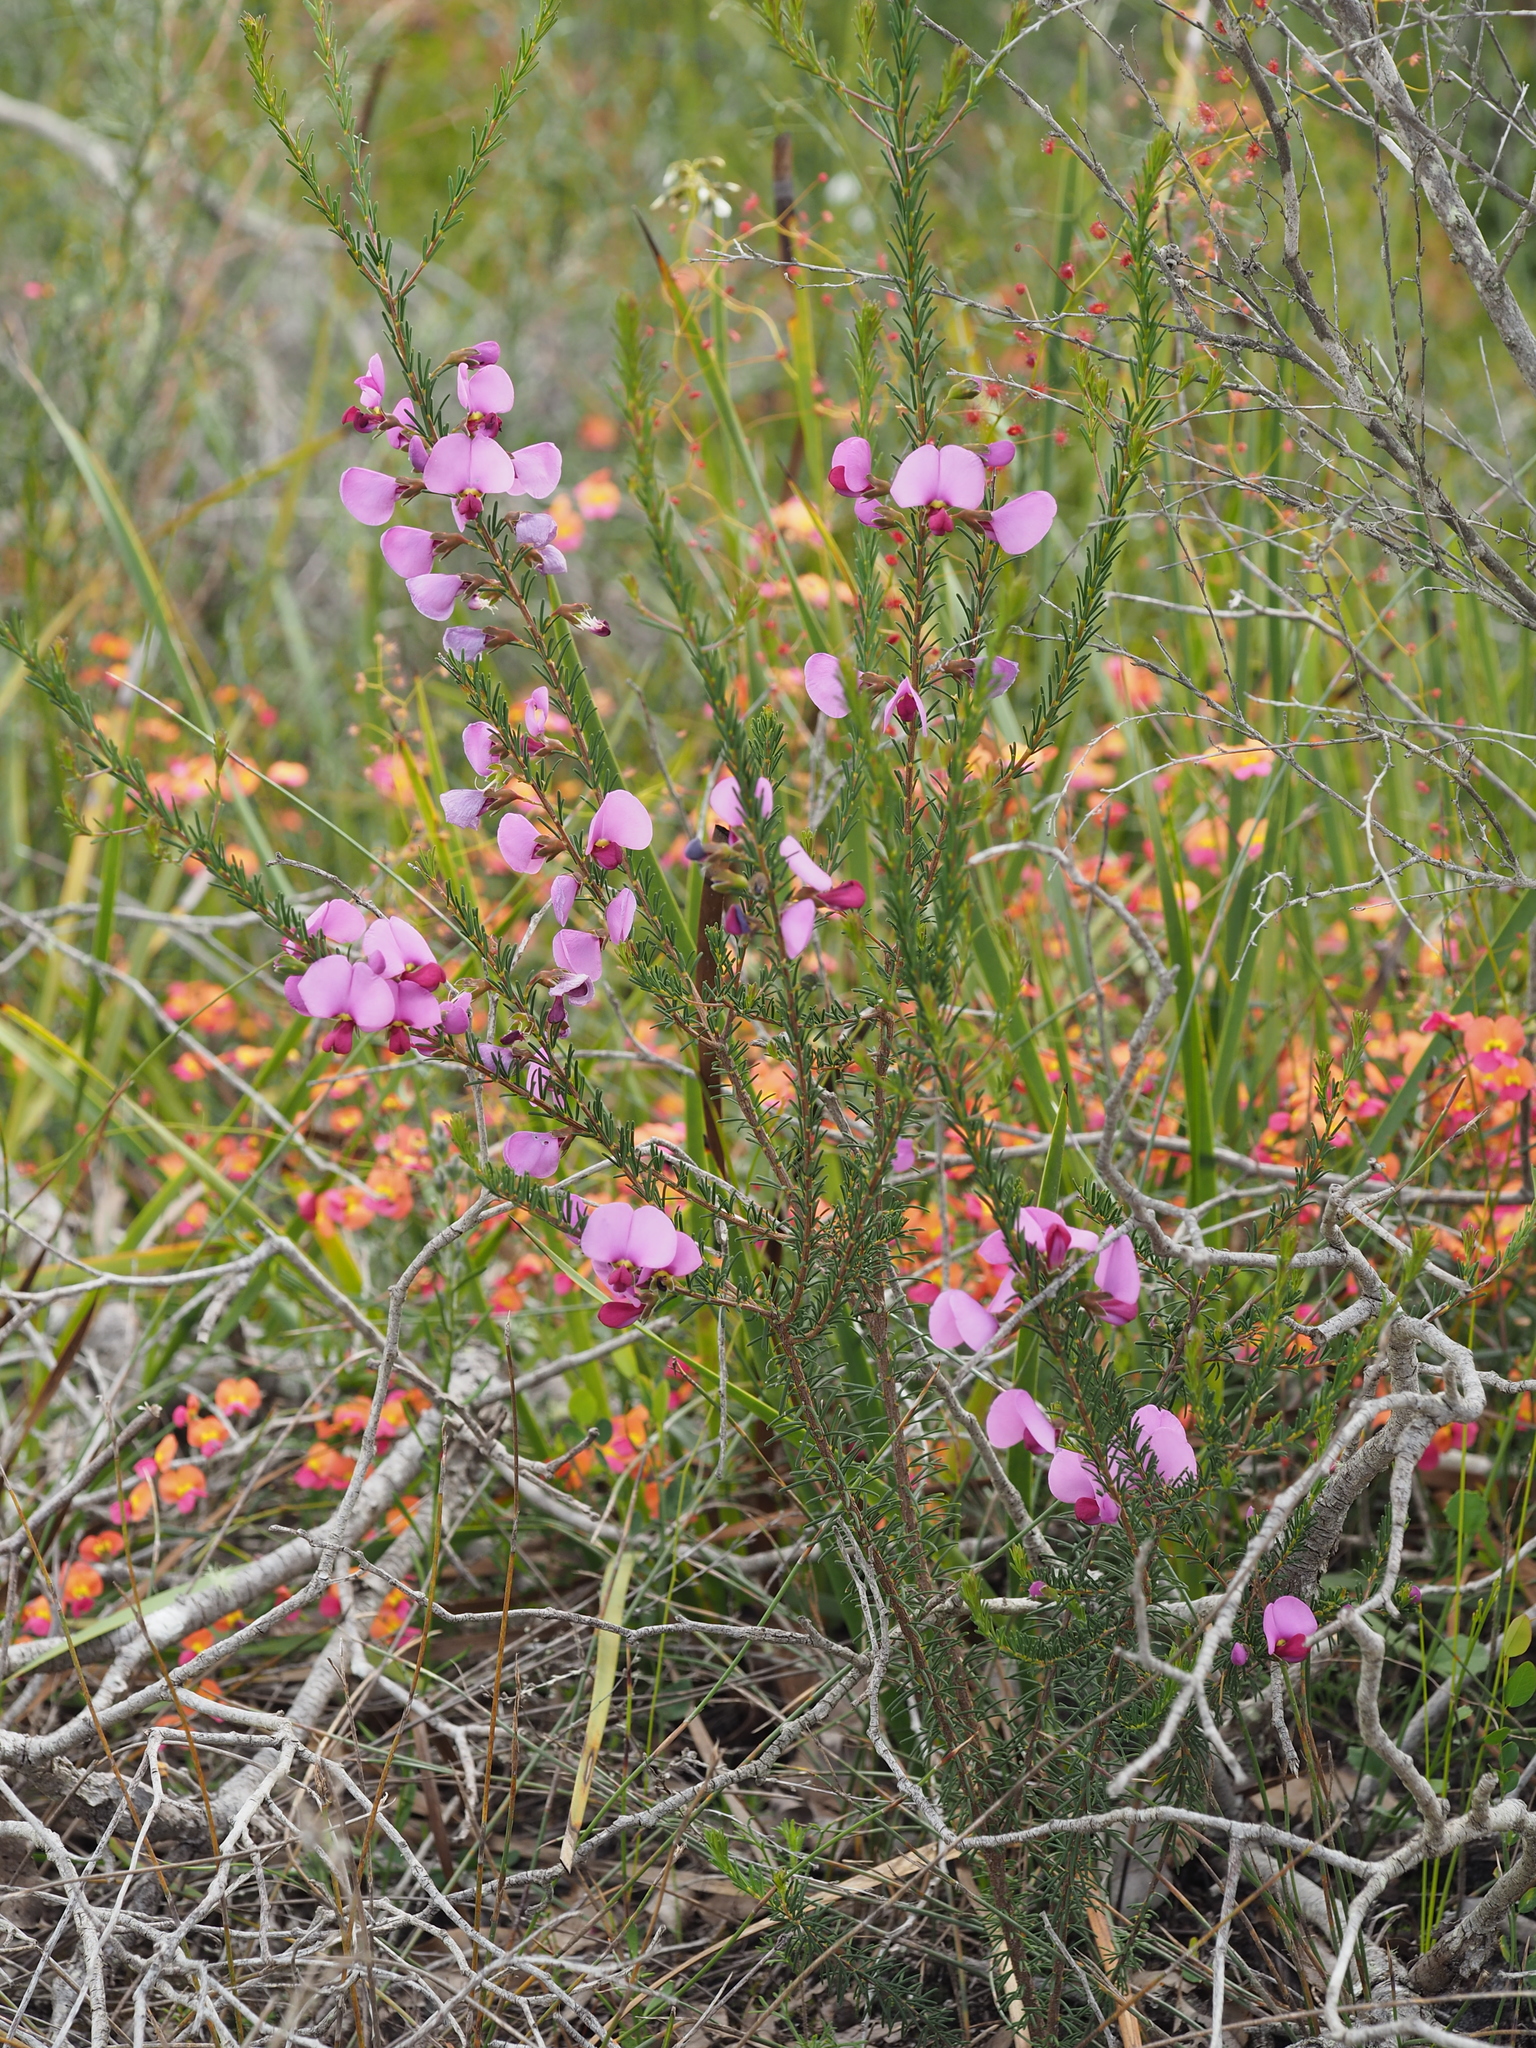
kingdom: Plantae
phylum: Tracheophyta
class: Magnoliopsida
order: Fabales
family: Fabaceae
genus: Gompholobium
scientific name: Gompholobium scabrum
